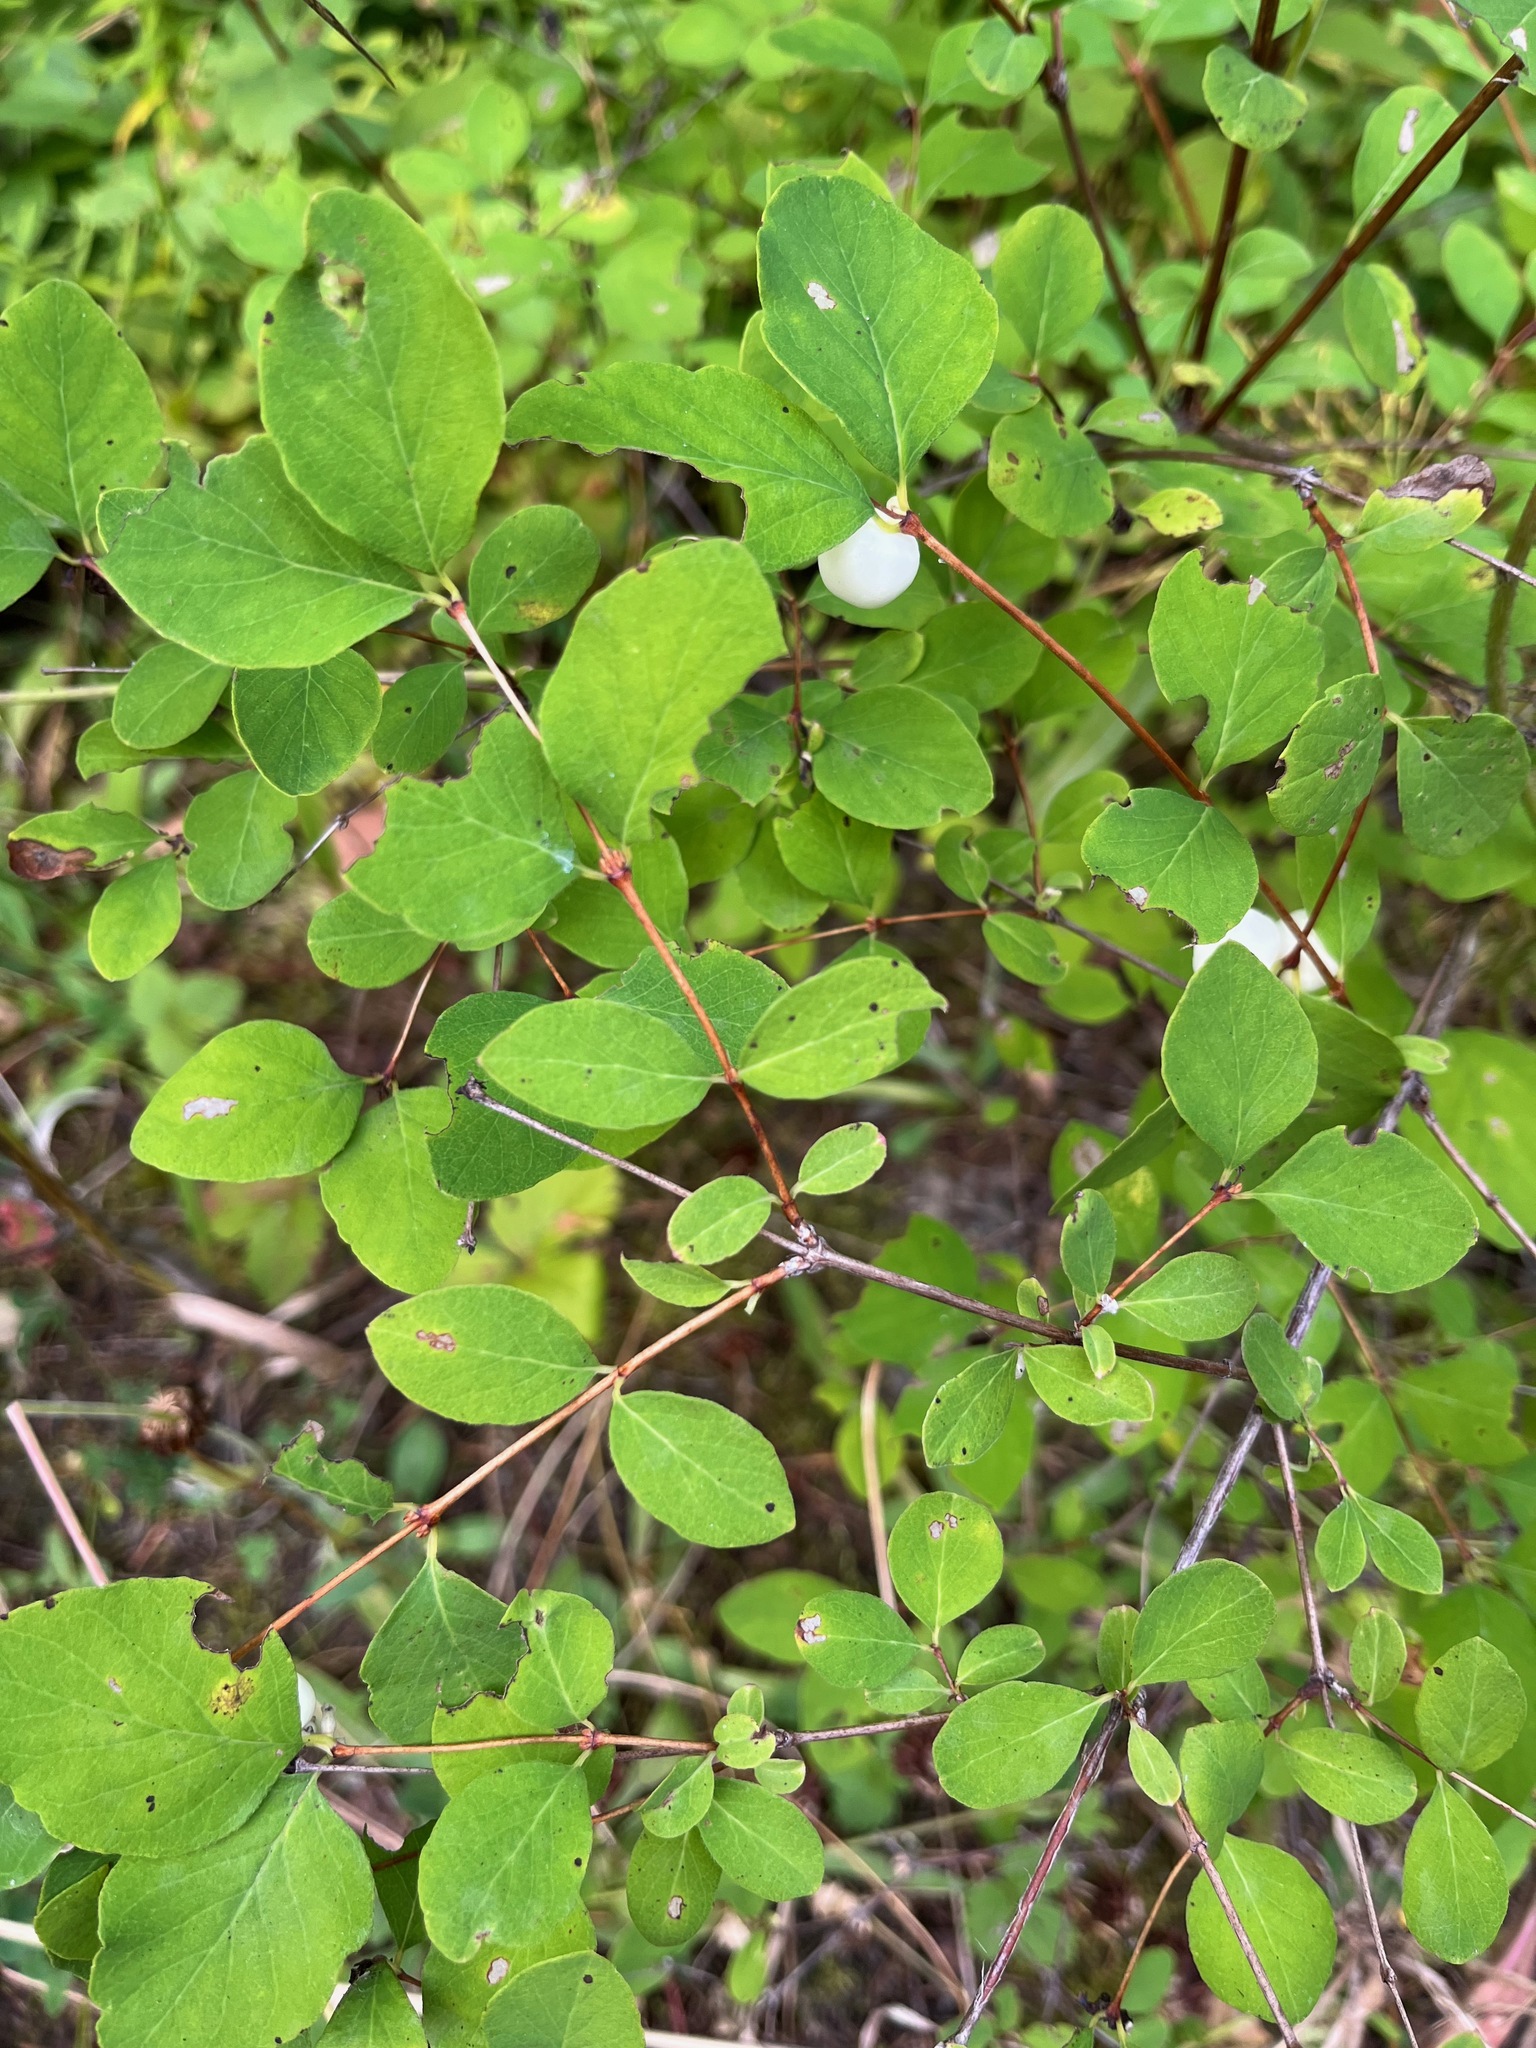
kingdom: Plantae
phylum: Tracheophyta
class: Magnoliopsida
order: Dipsacales
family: Caprifoliaceae
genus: Symphoricarpos
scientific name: Symphoricarpos albus
